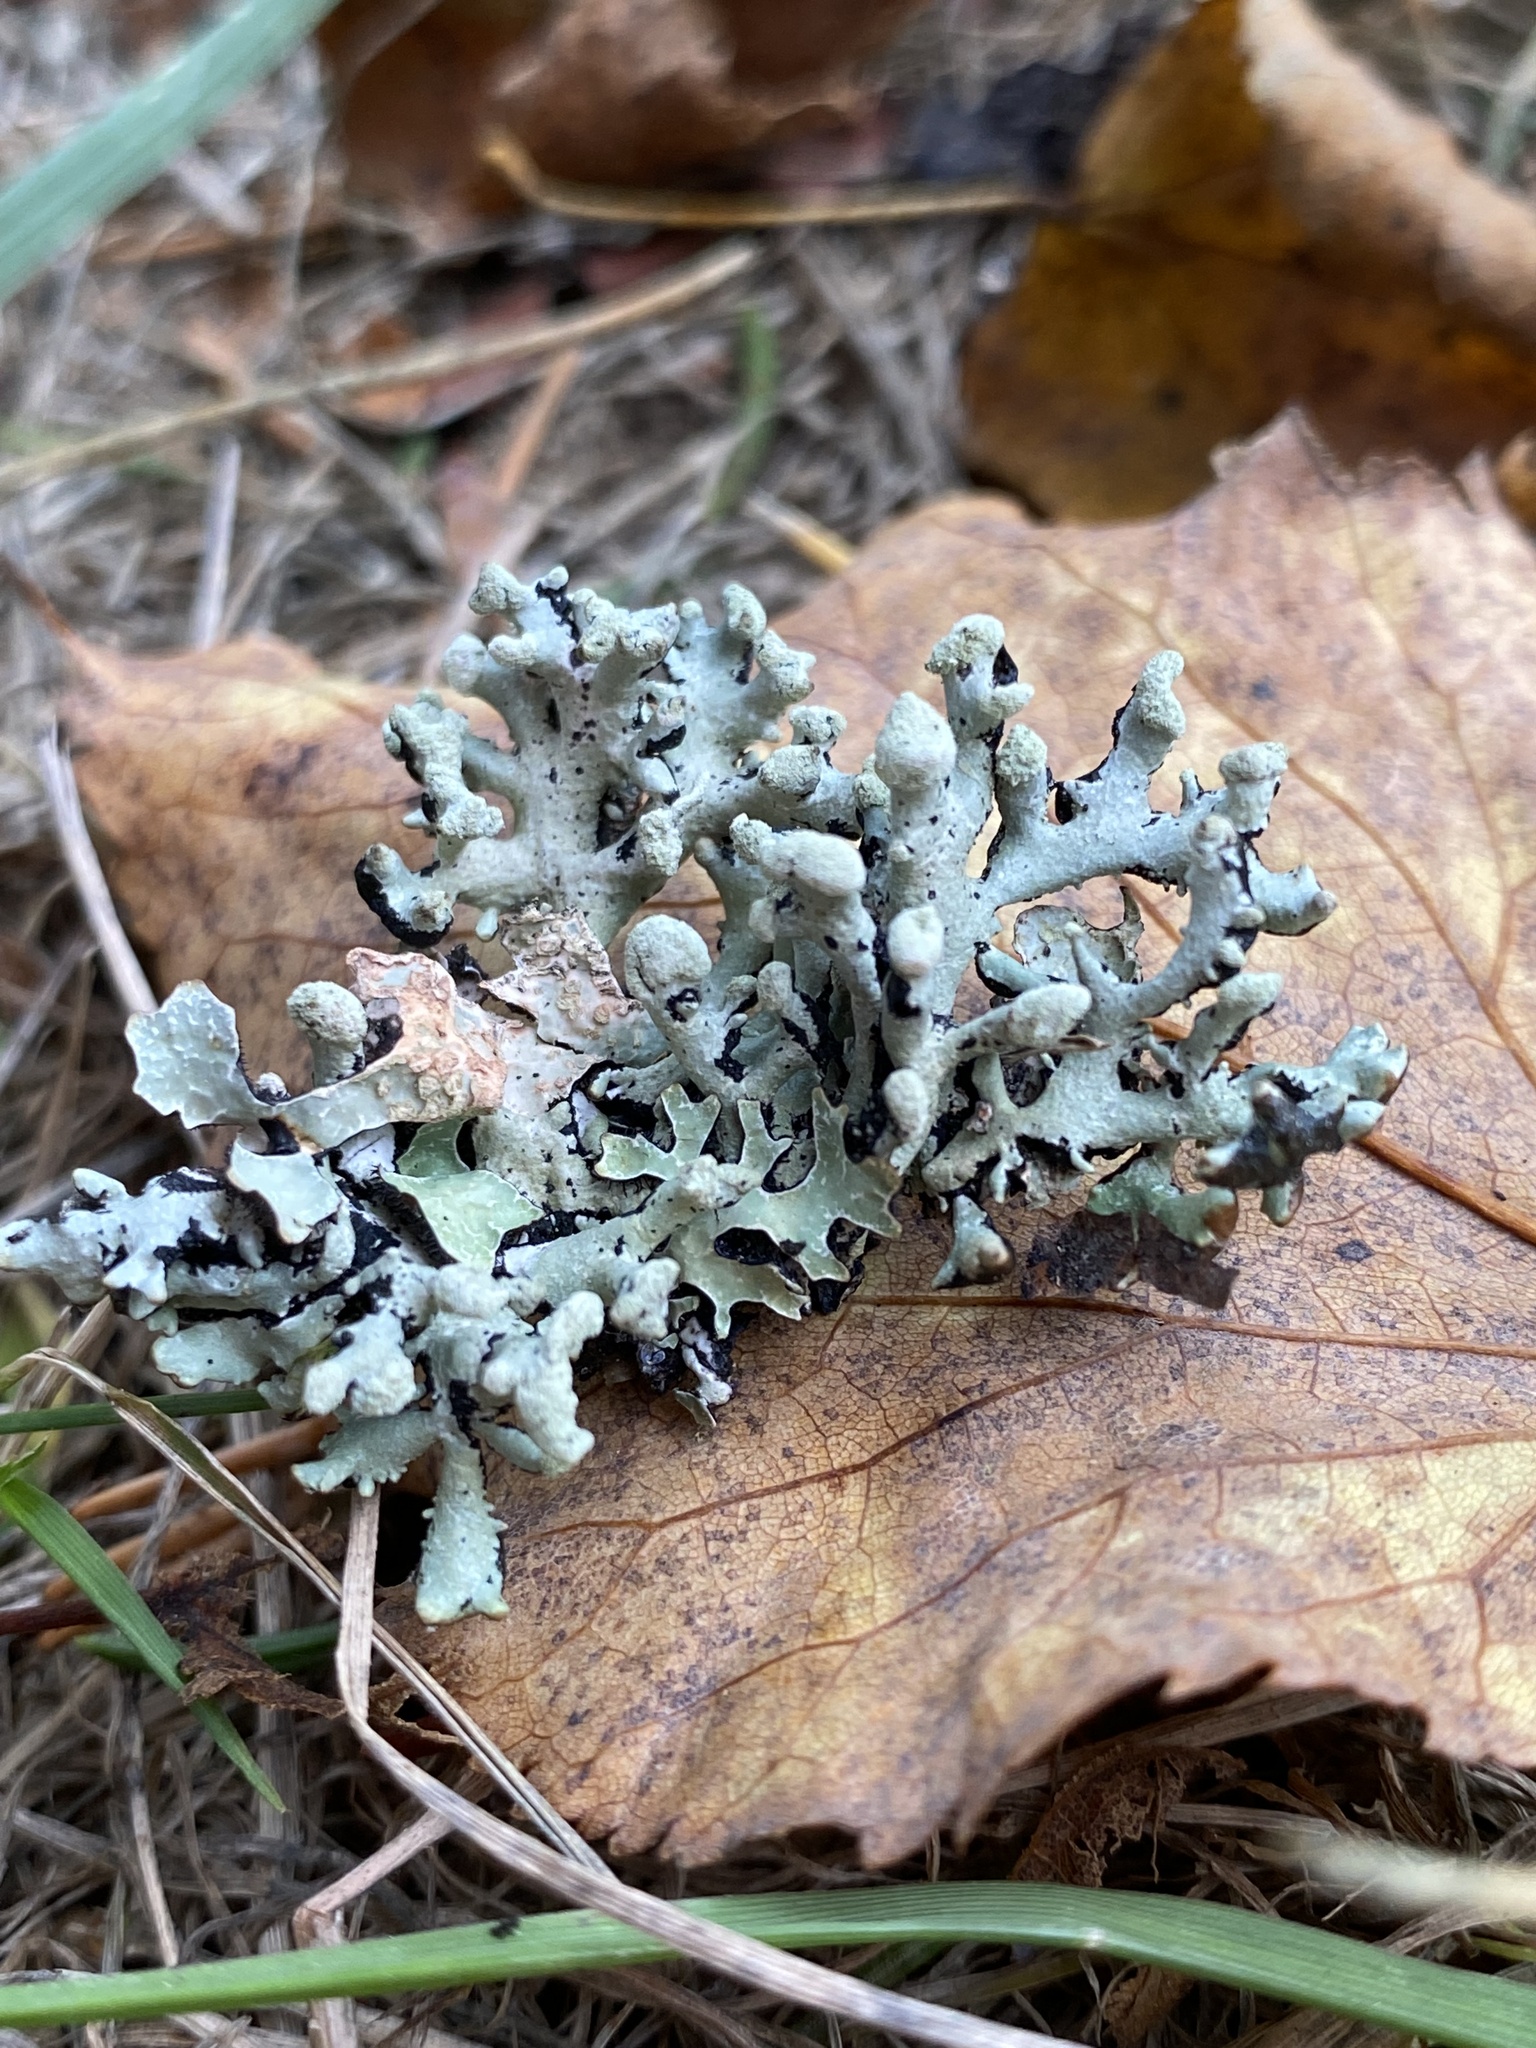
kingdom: Fungi
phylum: Ascomycota
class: Lecanoromycetes
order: Lecanorales
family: Parmeliaceae
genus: Hypogymnia
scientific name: Hypogymnia tubulosa
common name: Powder-headed tube lichen
